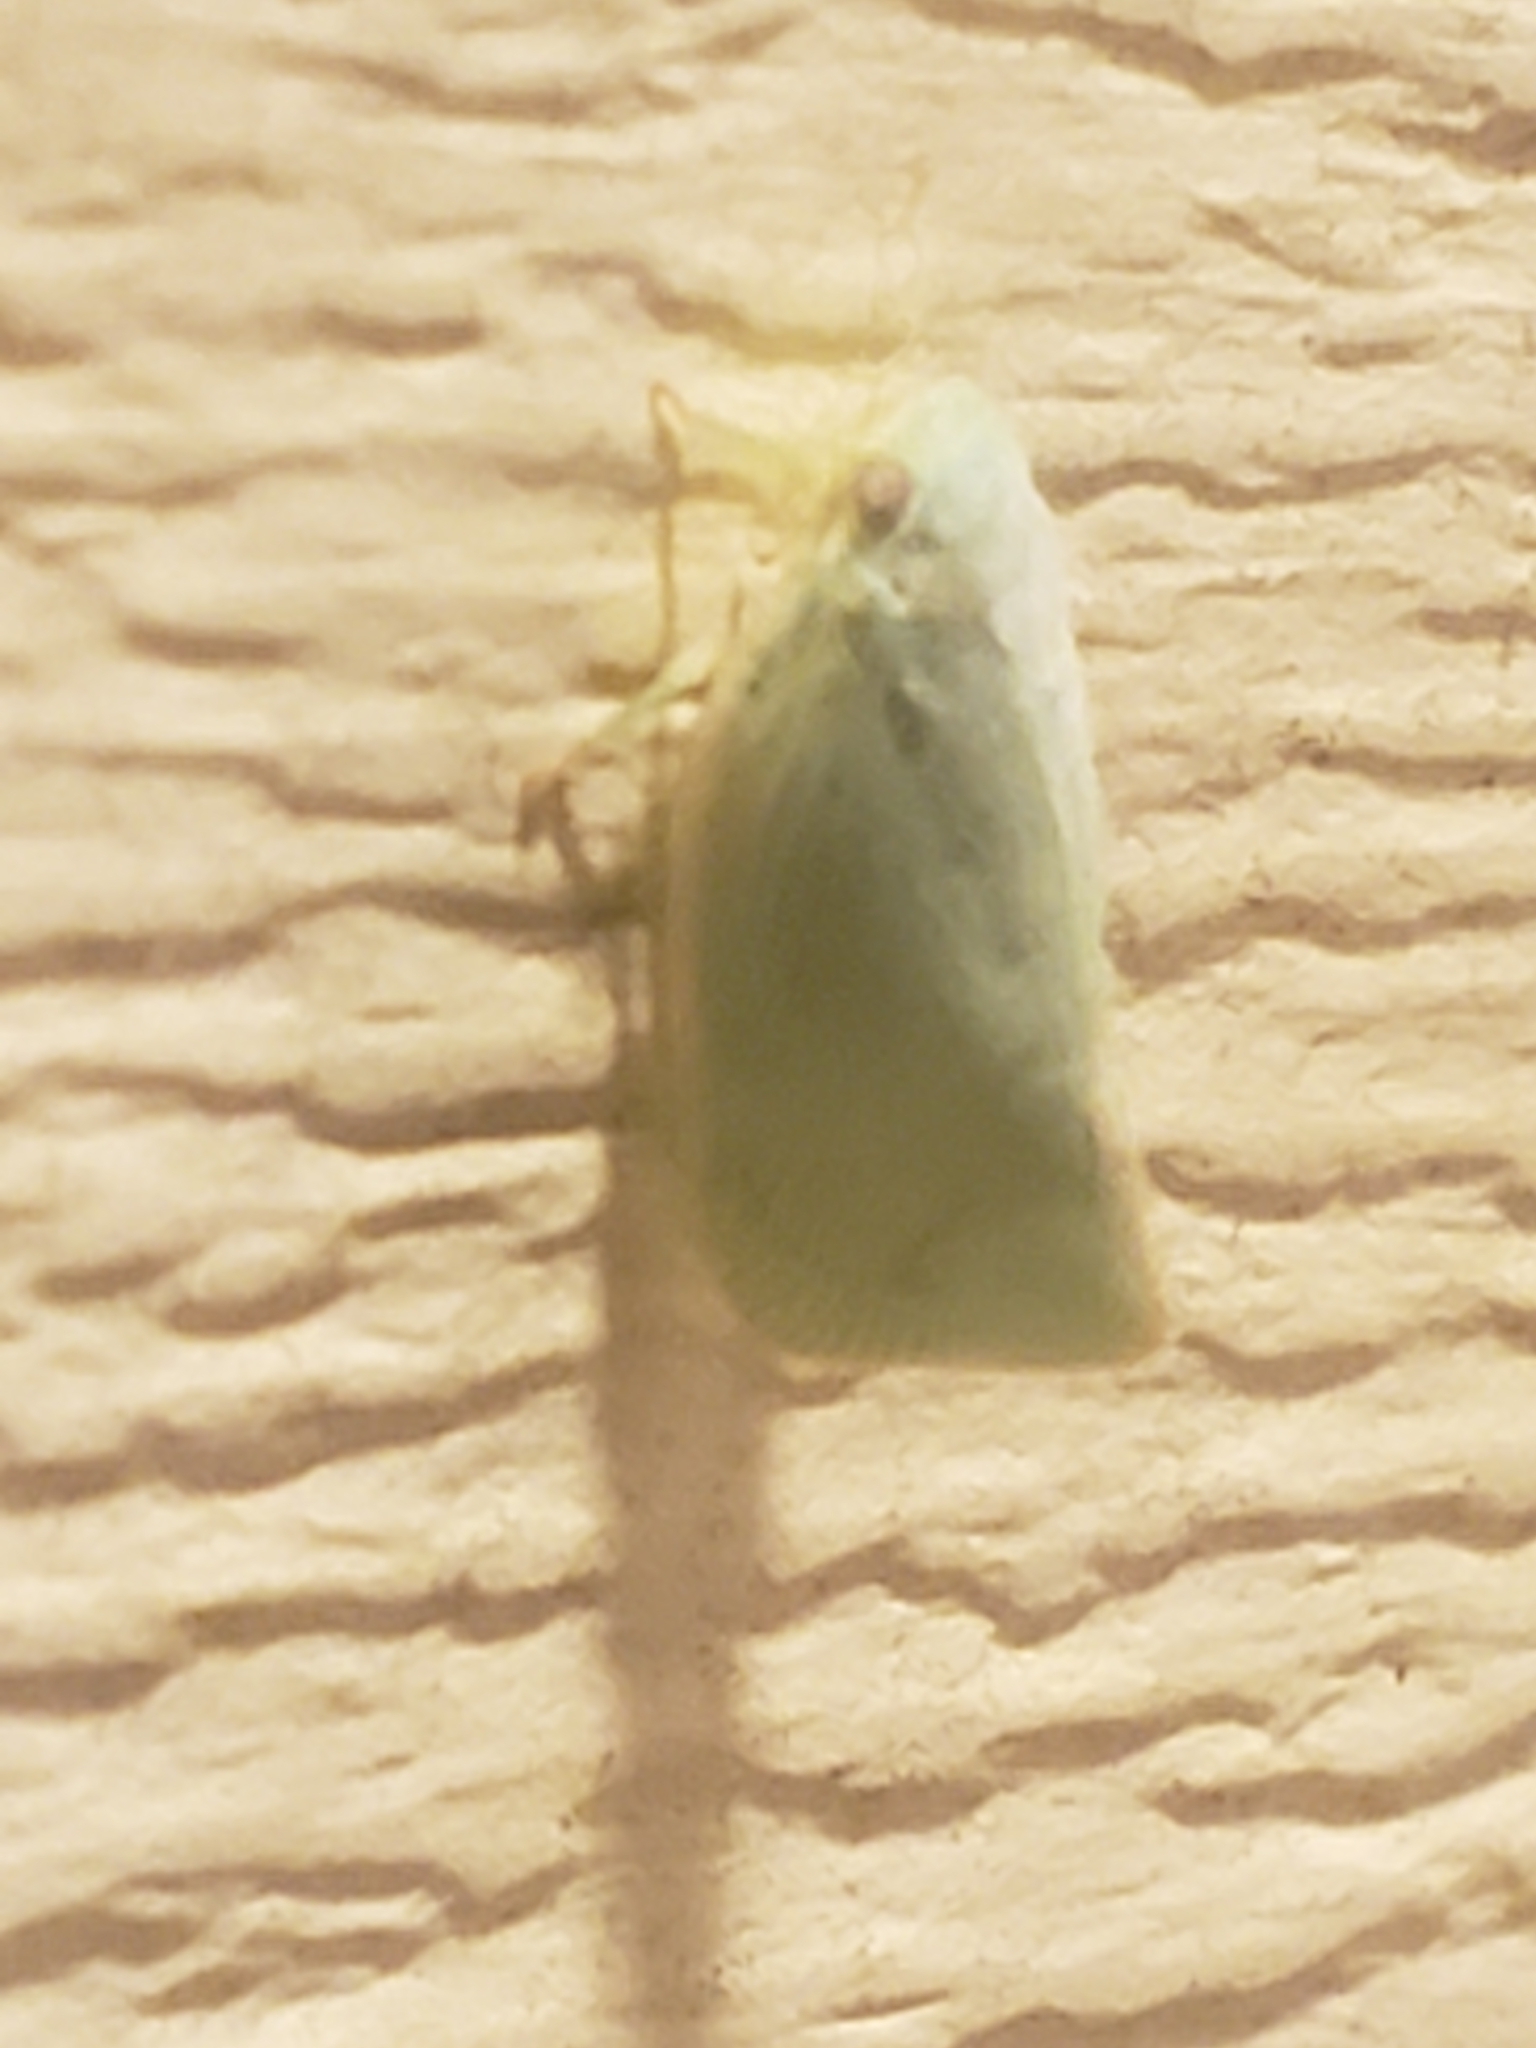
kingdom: Animalia
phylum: Arthropoda
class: Insecta
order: Hemiptera
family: Flatidae
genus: Flatormenis
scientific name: Flatormenis proxima
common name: Northern flatid planthopper
